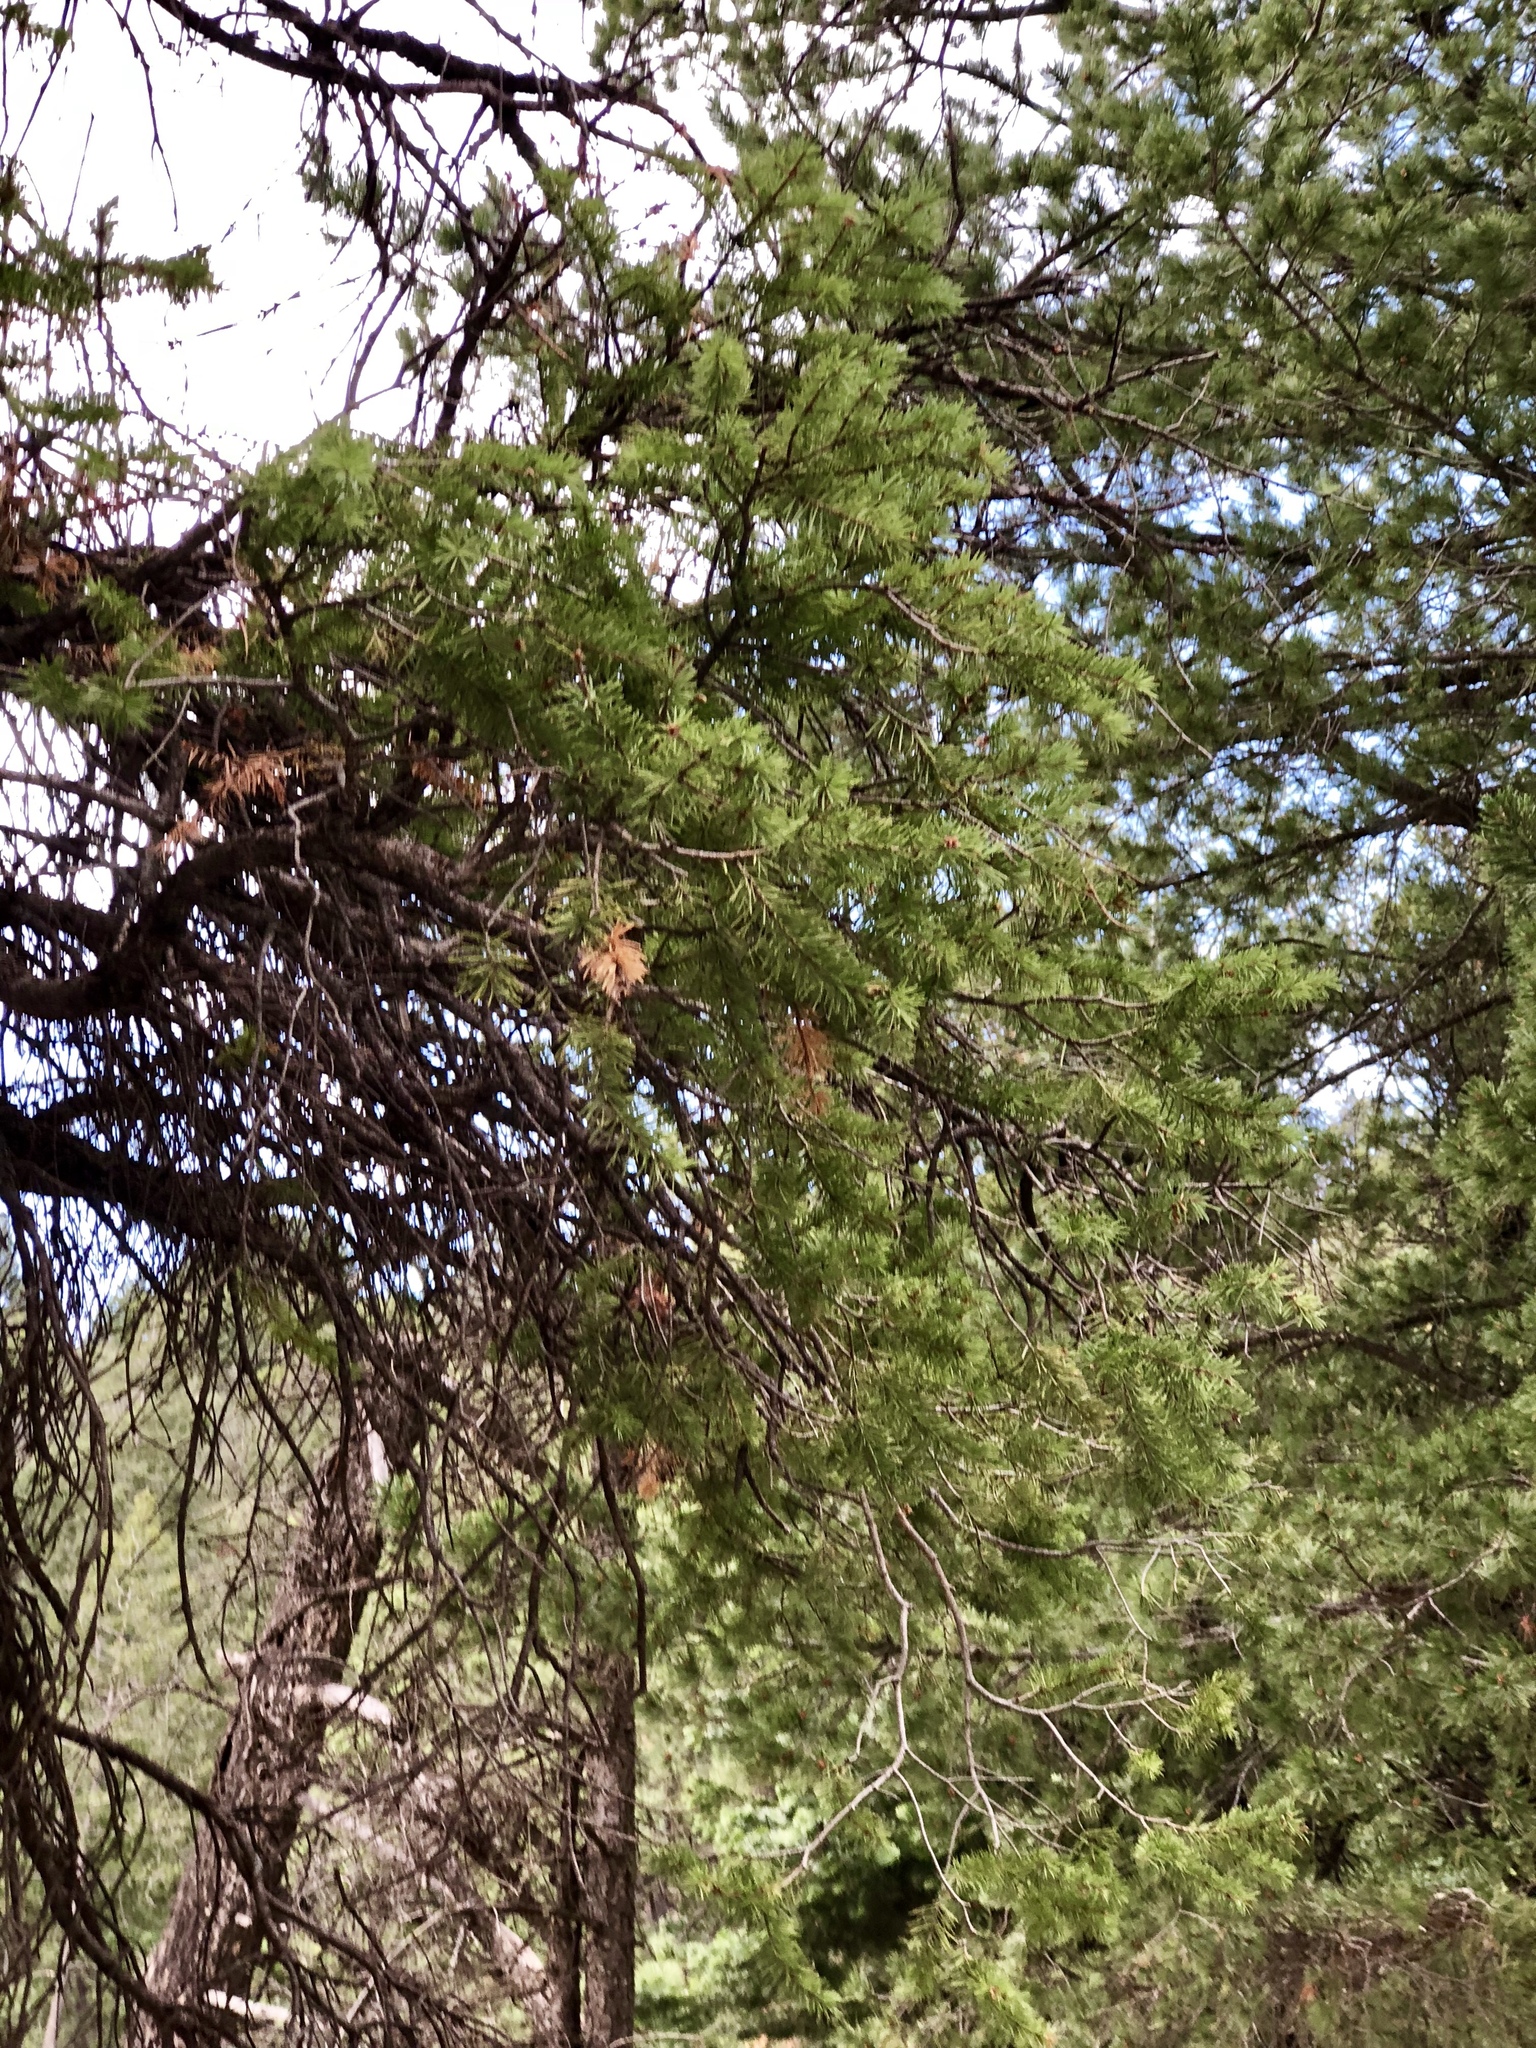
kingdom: Plantae
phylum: Tracheophyta
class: Pinopsida
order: Pinales
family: Pinaceae
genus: Pseudotsuga
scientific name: Pseudotsuga menziesii
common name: Douglas fir
